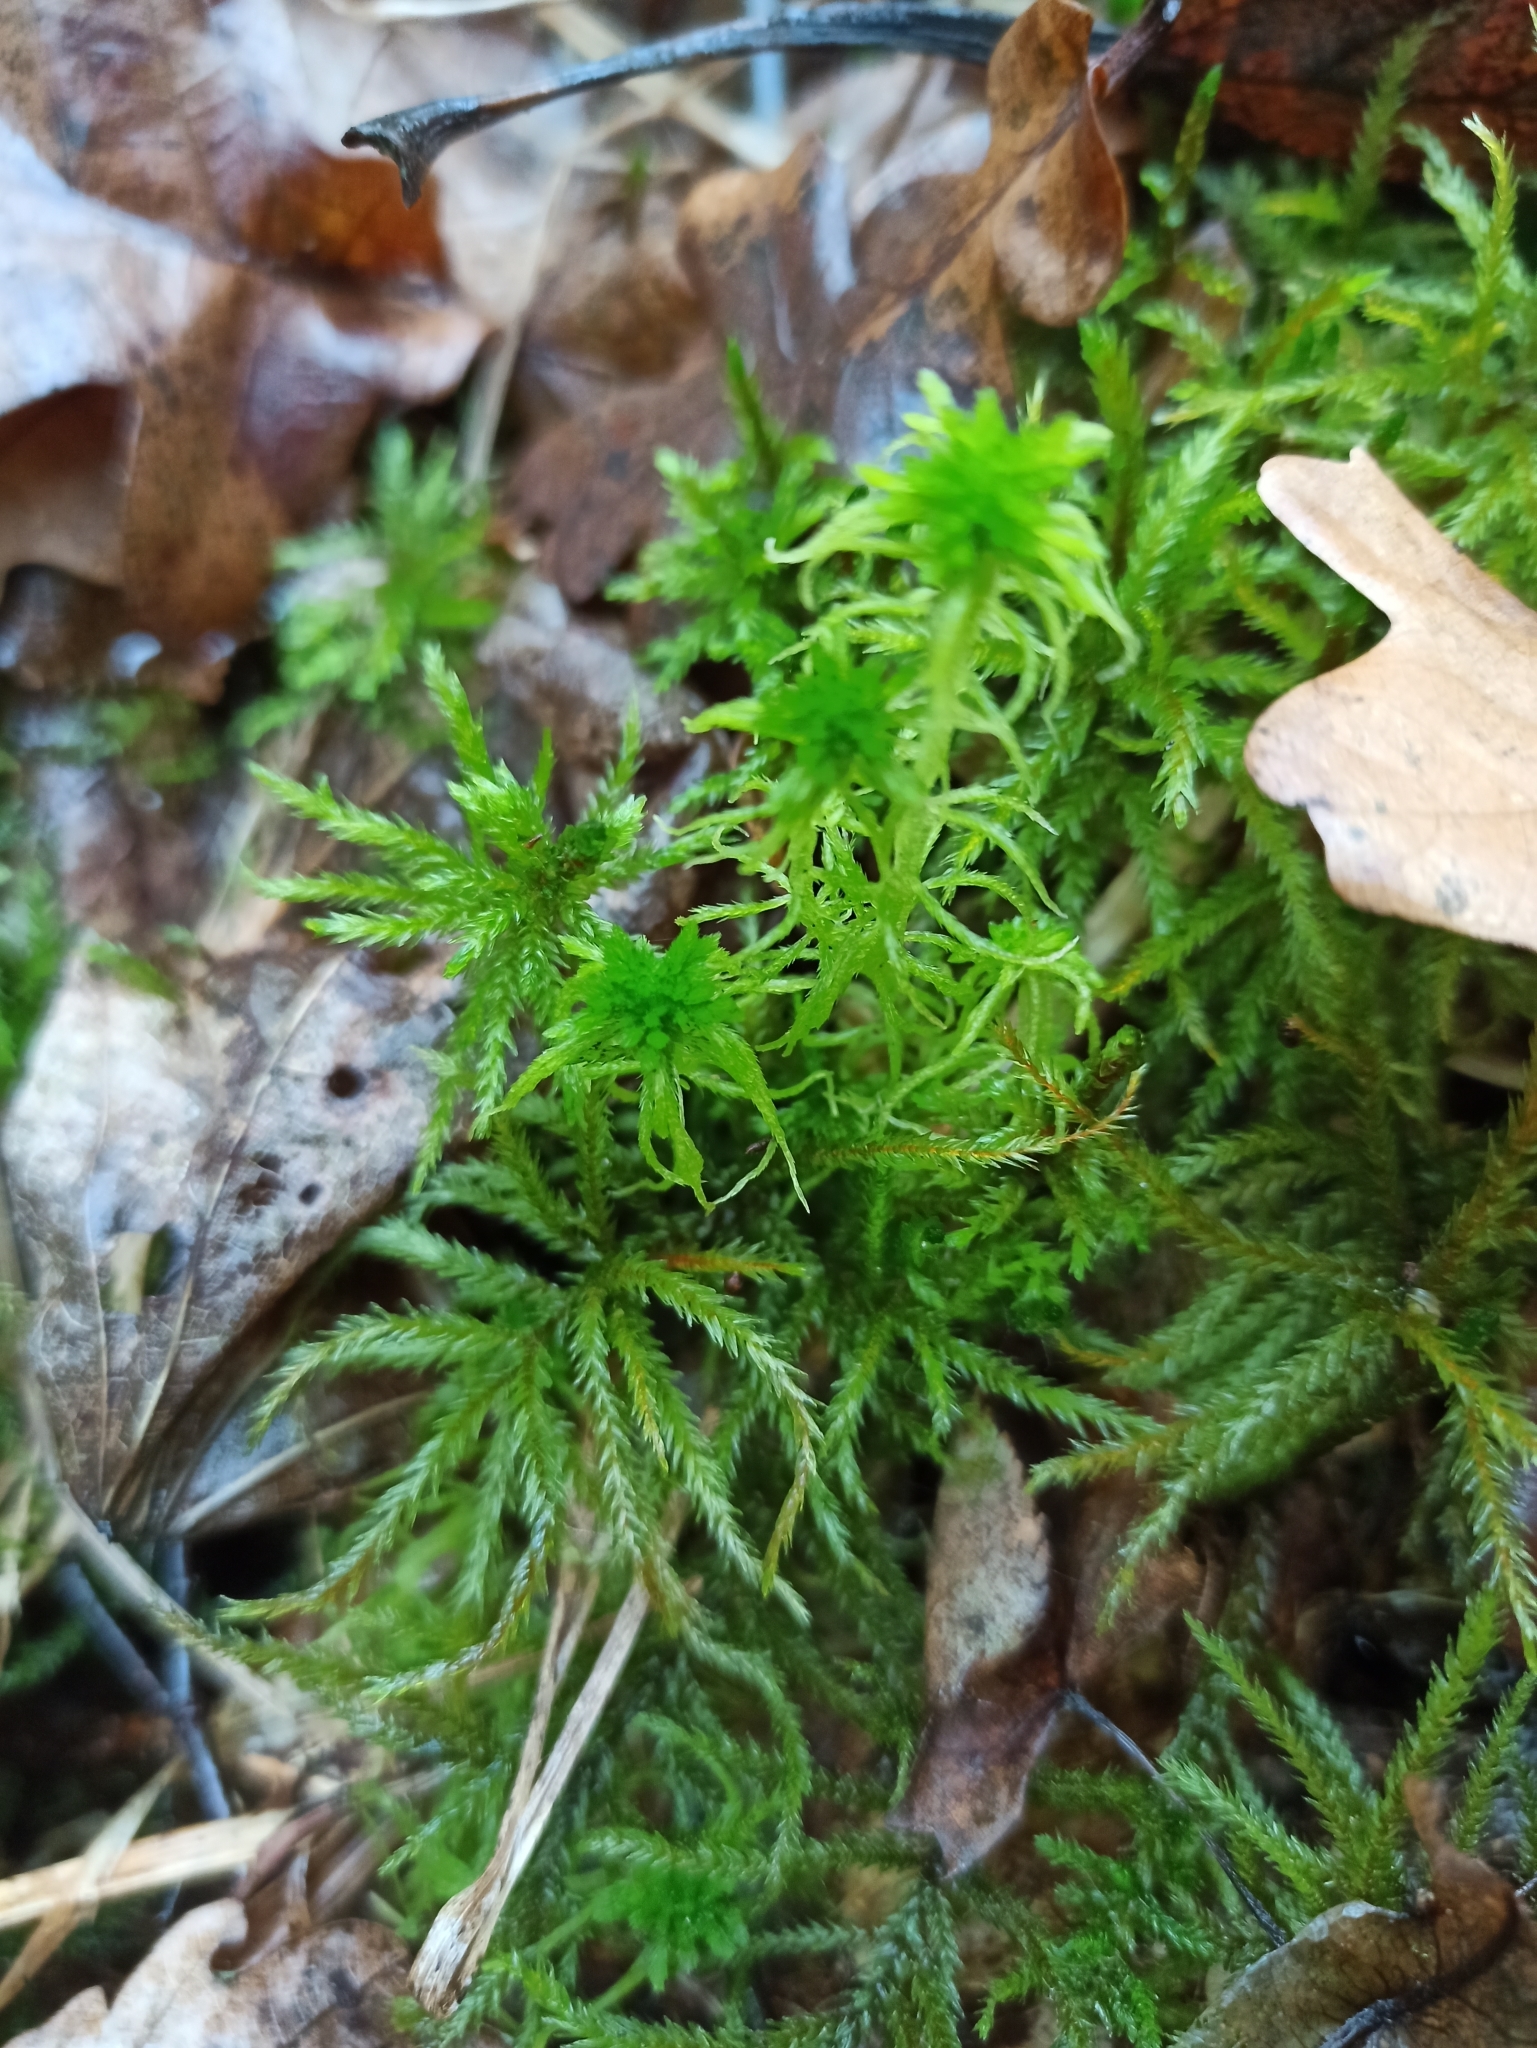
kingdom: Plantae
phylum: Bryophyta
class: Bryopsida
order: Hypnales
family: Climaciaceae
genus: Climacium
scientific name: Climacium dendroides
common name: Northern tree moss
